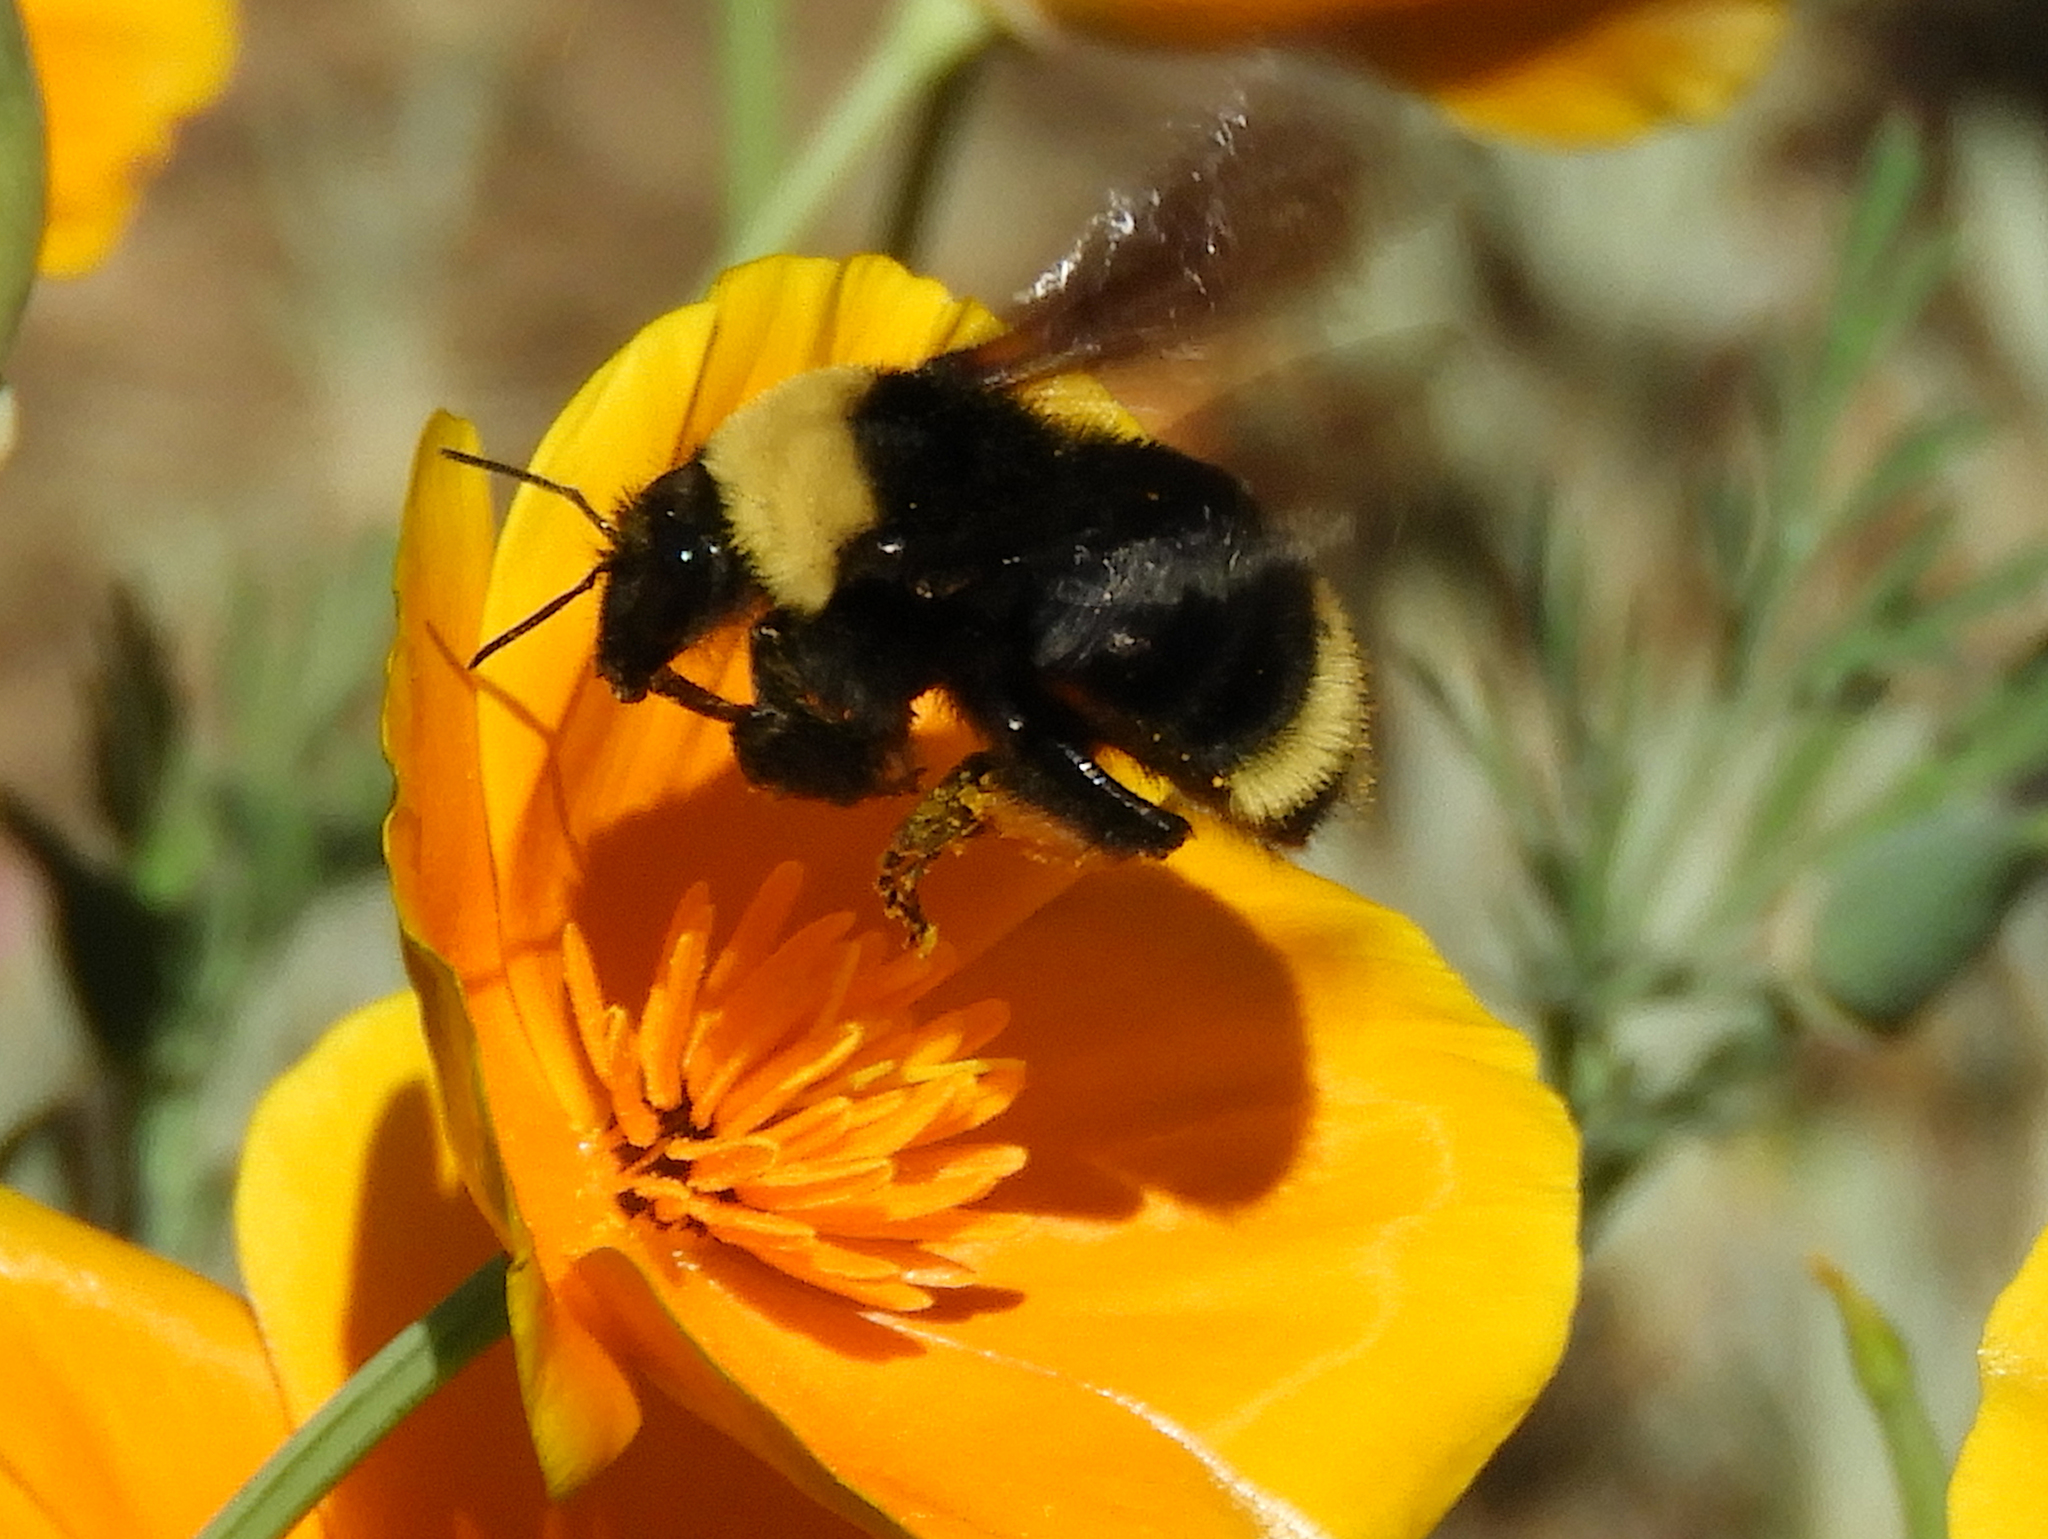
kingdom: Animalia
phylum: Arthropoda
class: Insecta
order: Hymenoptera
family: Apidae
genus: Bombus
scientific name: Bombus californicus
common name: California bumble bee
